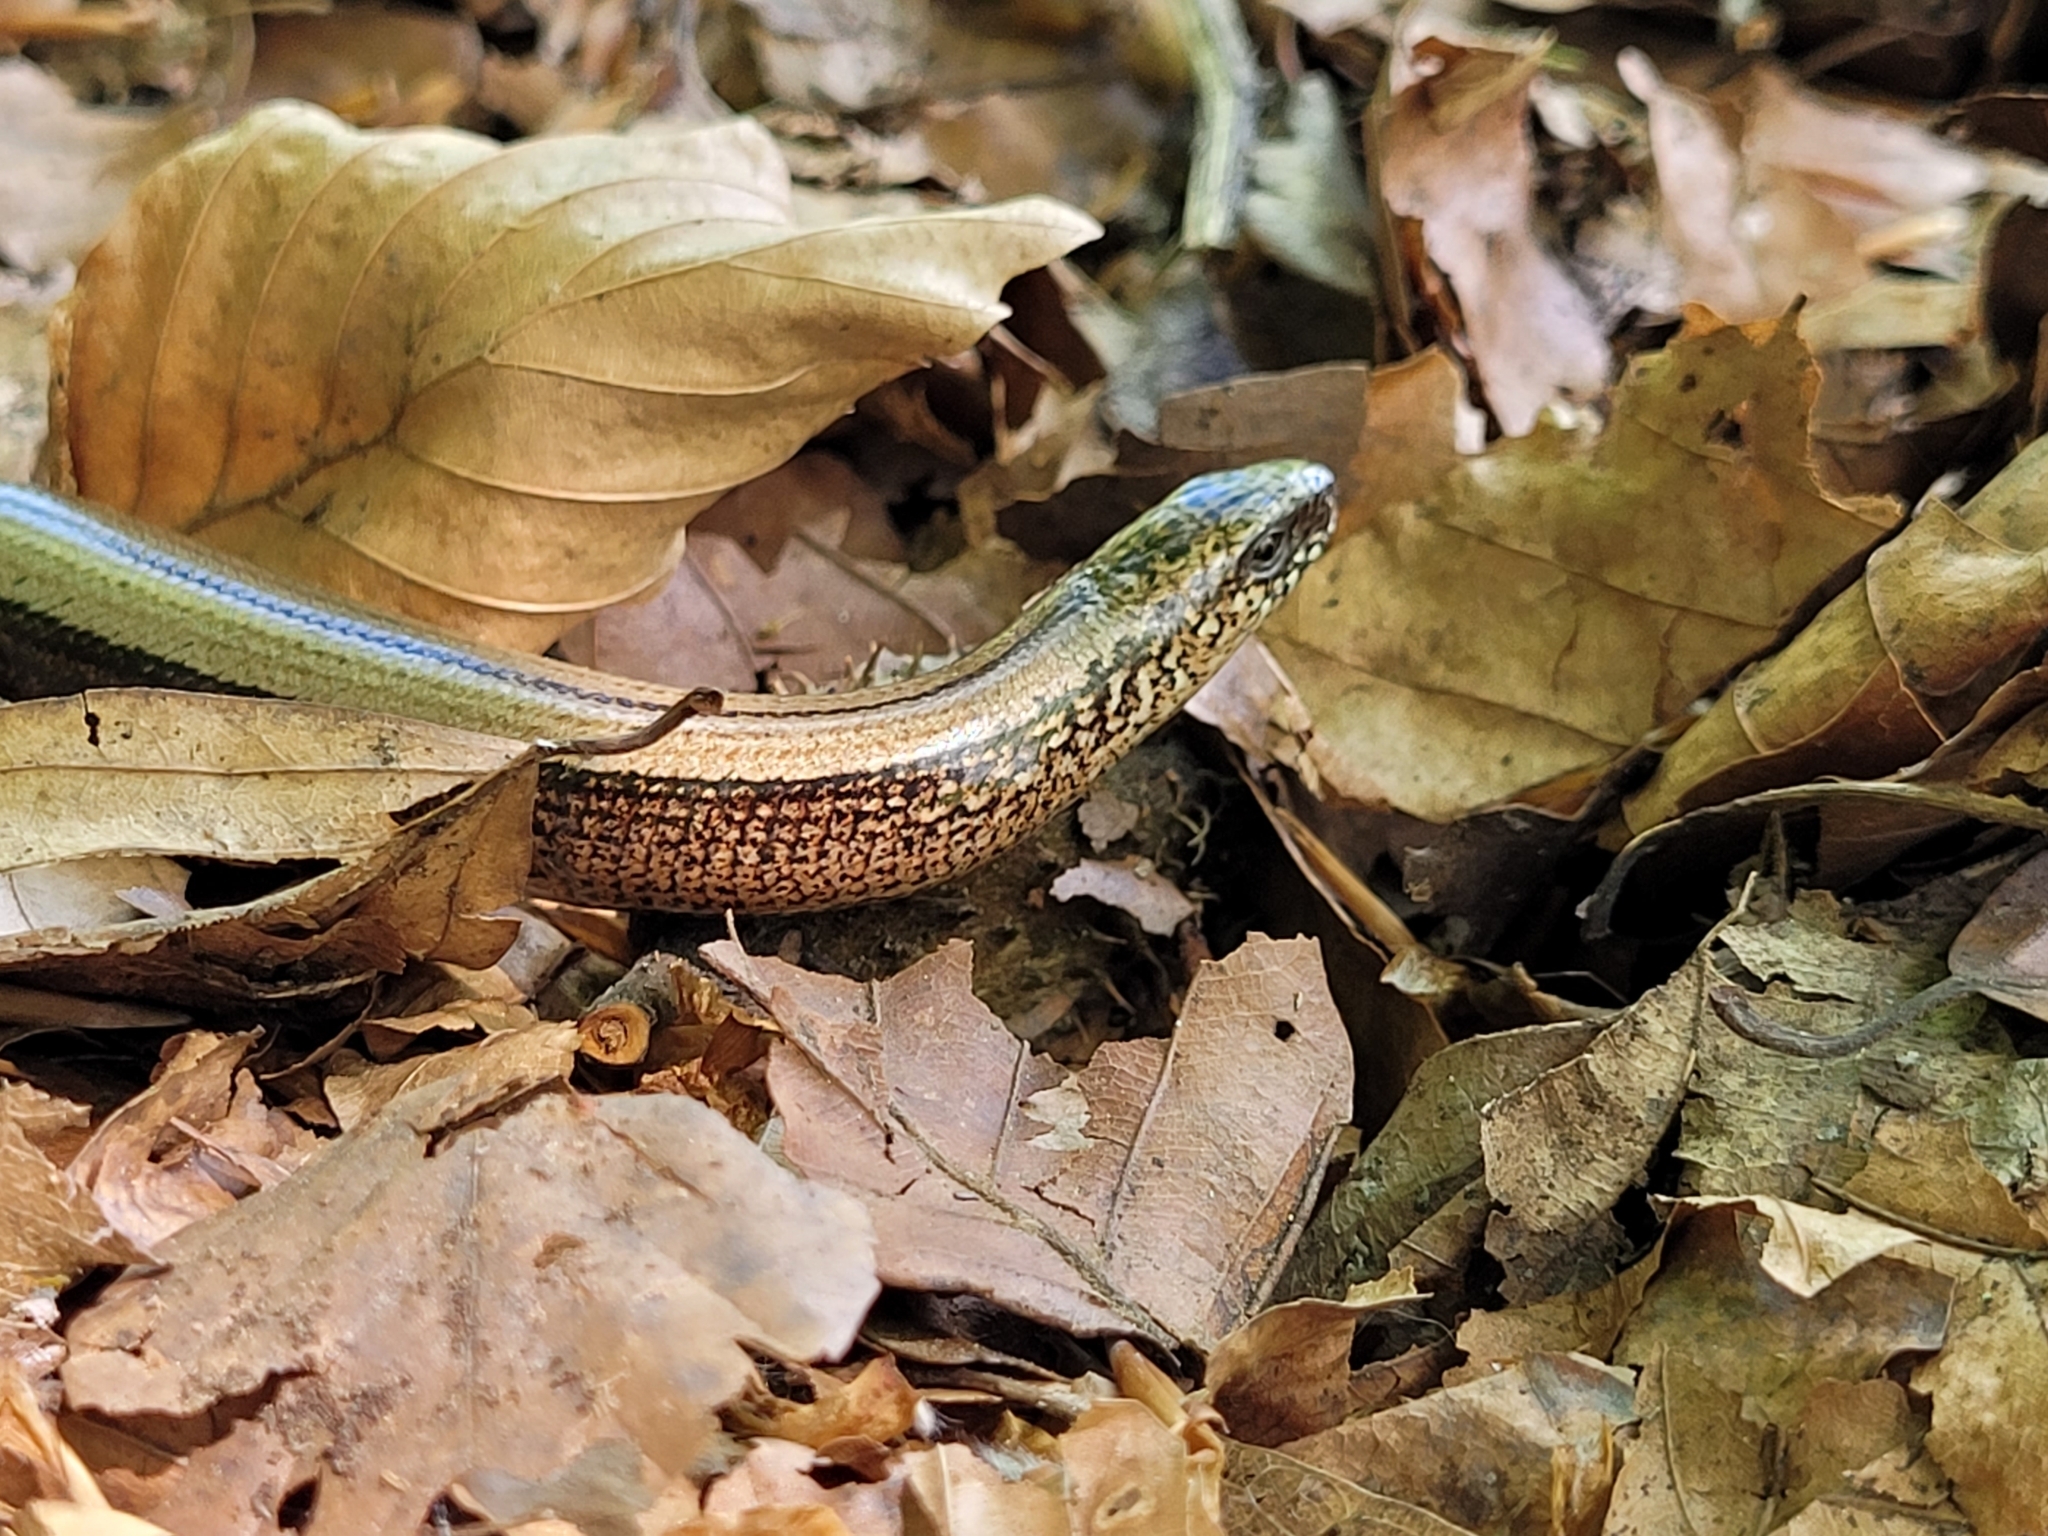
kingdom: Animalia
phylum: Chordata
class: Squamata
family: Anguidae
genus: Anguis
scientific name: Anguis fragilis
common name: Slow worm
